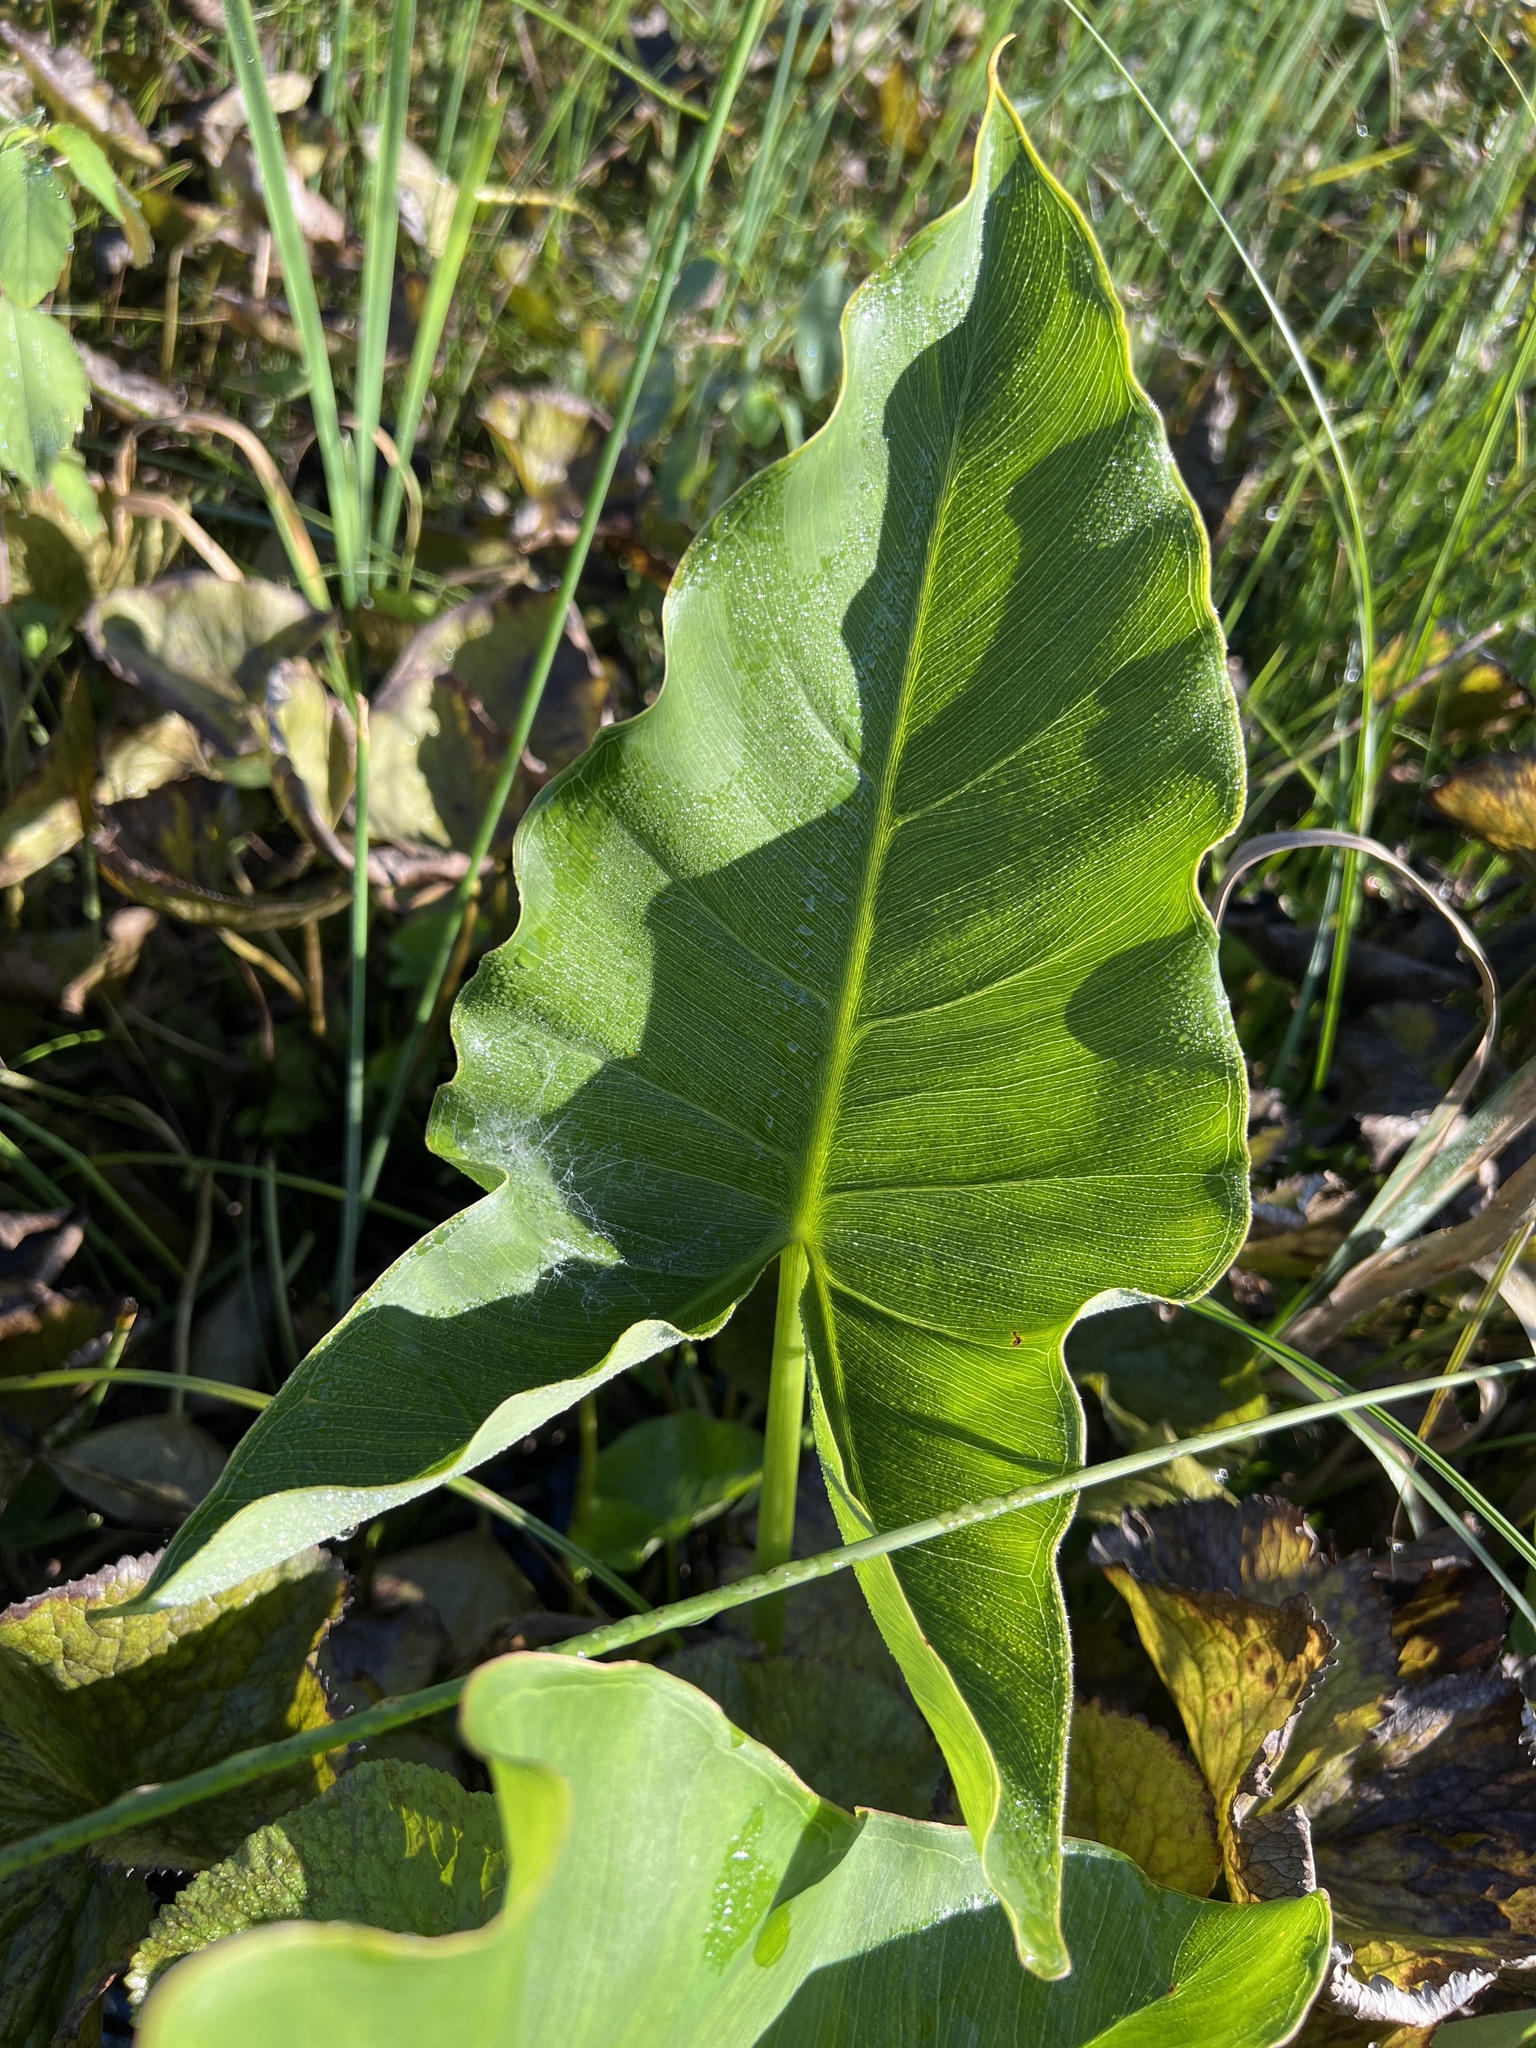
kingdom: Plantae
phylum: Tracheophyta
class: Liliopsida
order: Alismatales
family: Araceae
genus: Peltandra
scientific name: Peltandra virginica
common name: Arrow arum
